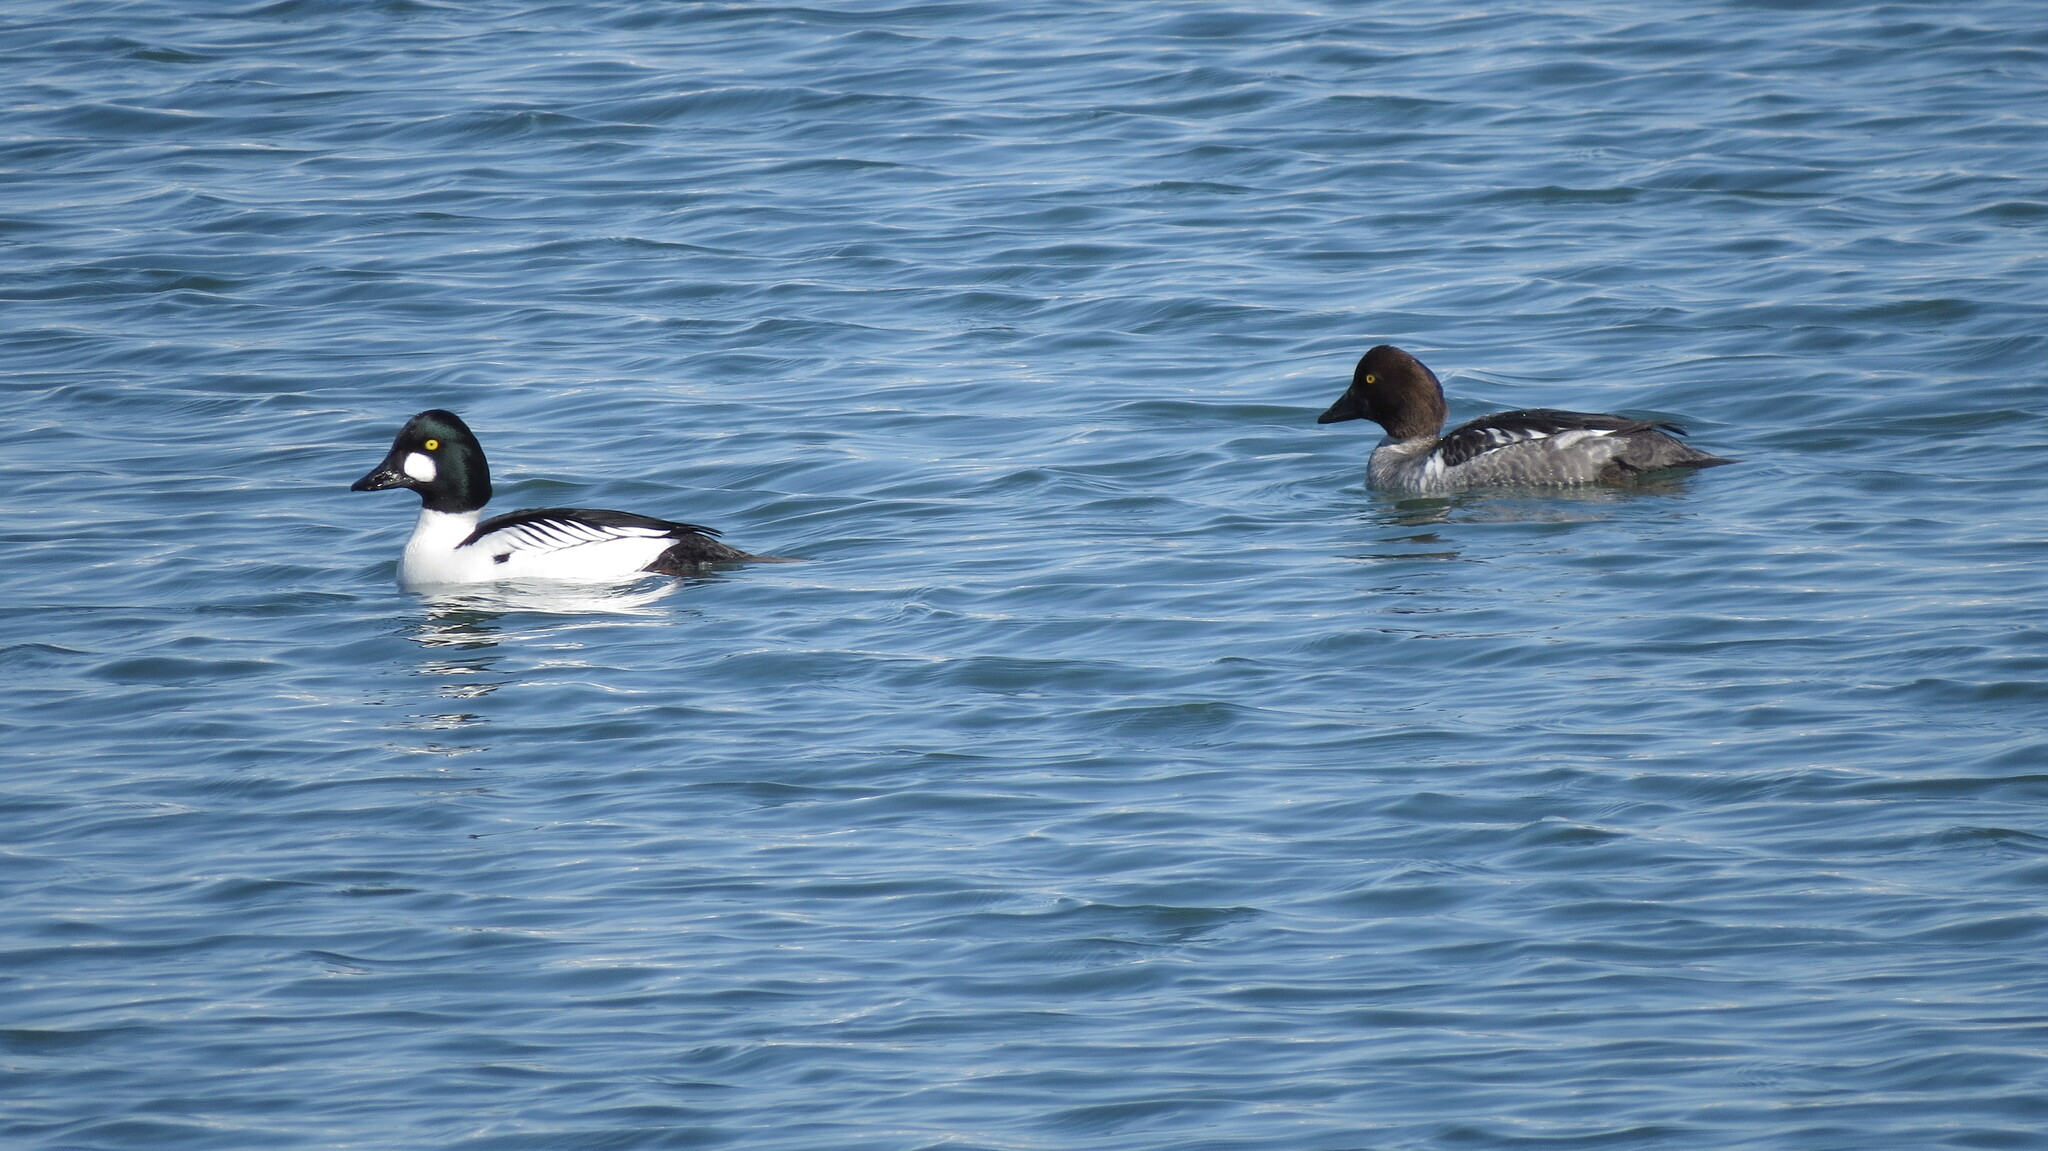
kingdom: Animalia
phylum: Chordata
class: Aves
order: Anseriformes
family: Anatidae
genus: Bucephala
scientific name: Bucephala clangula
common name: Common goldeneye
